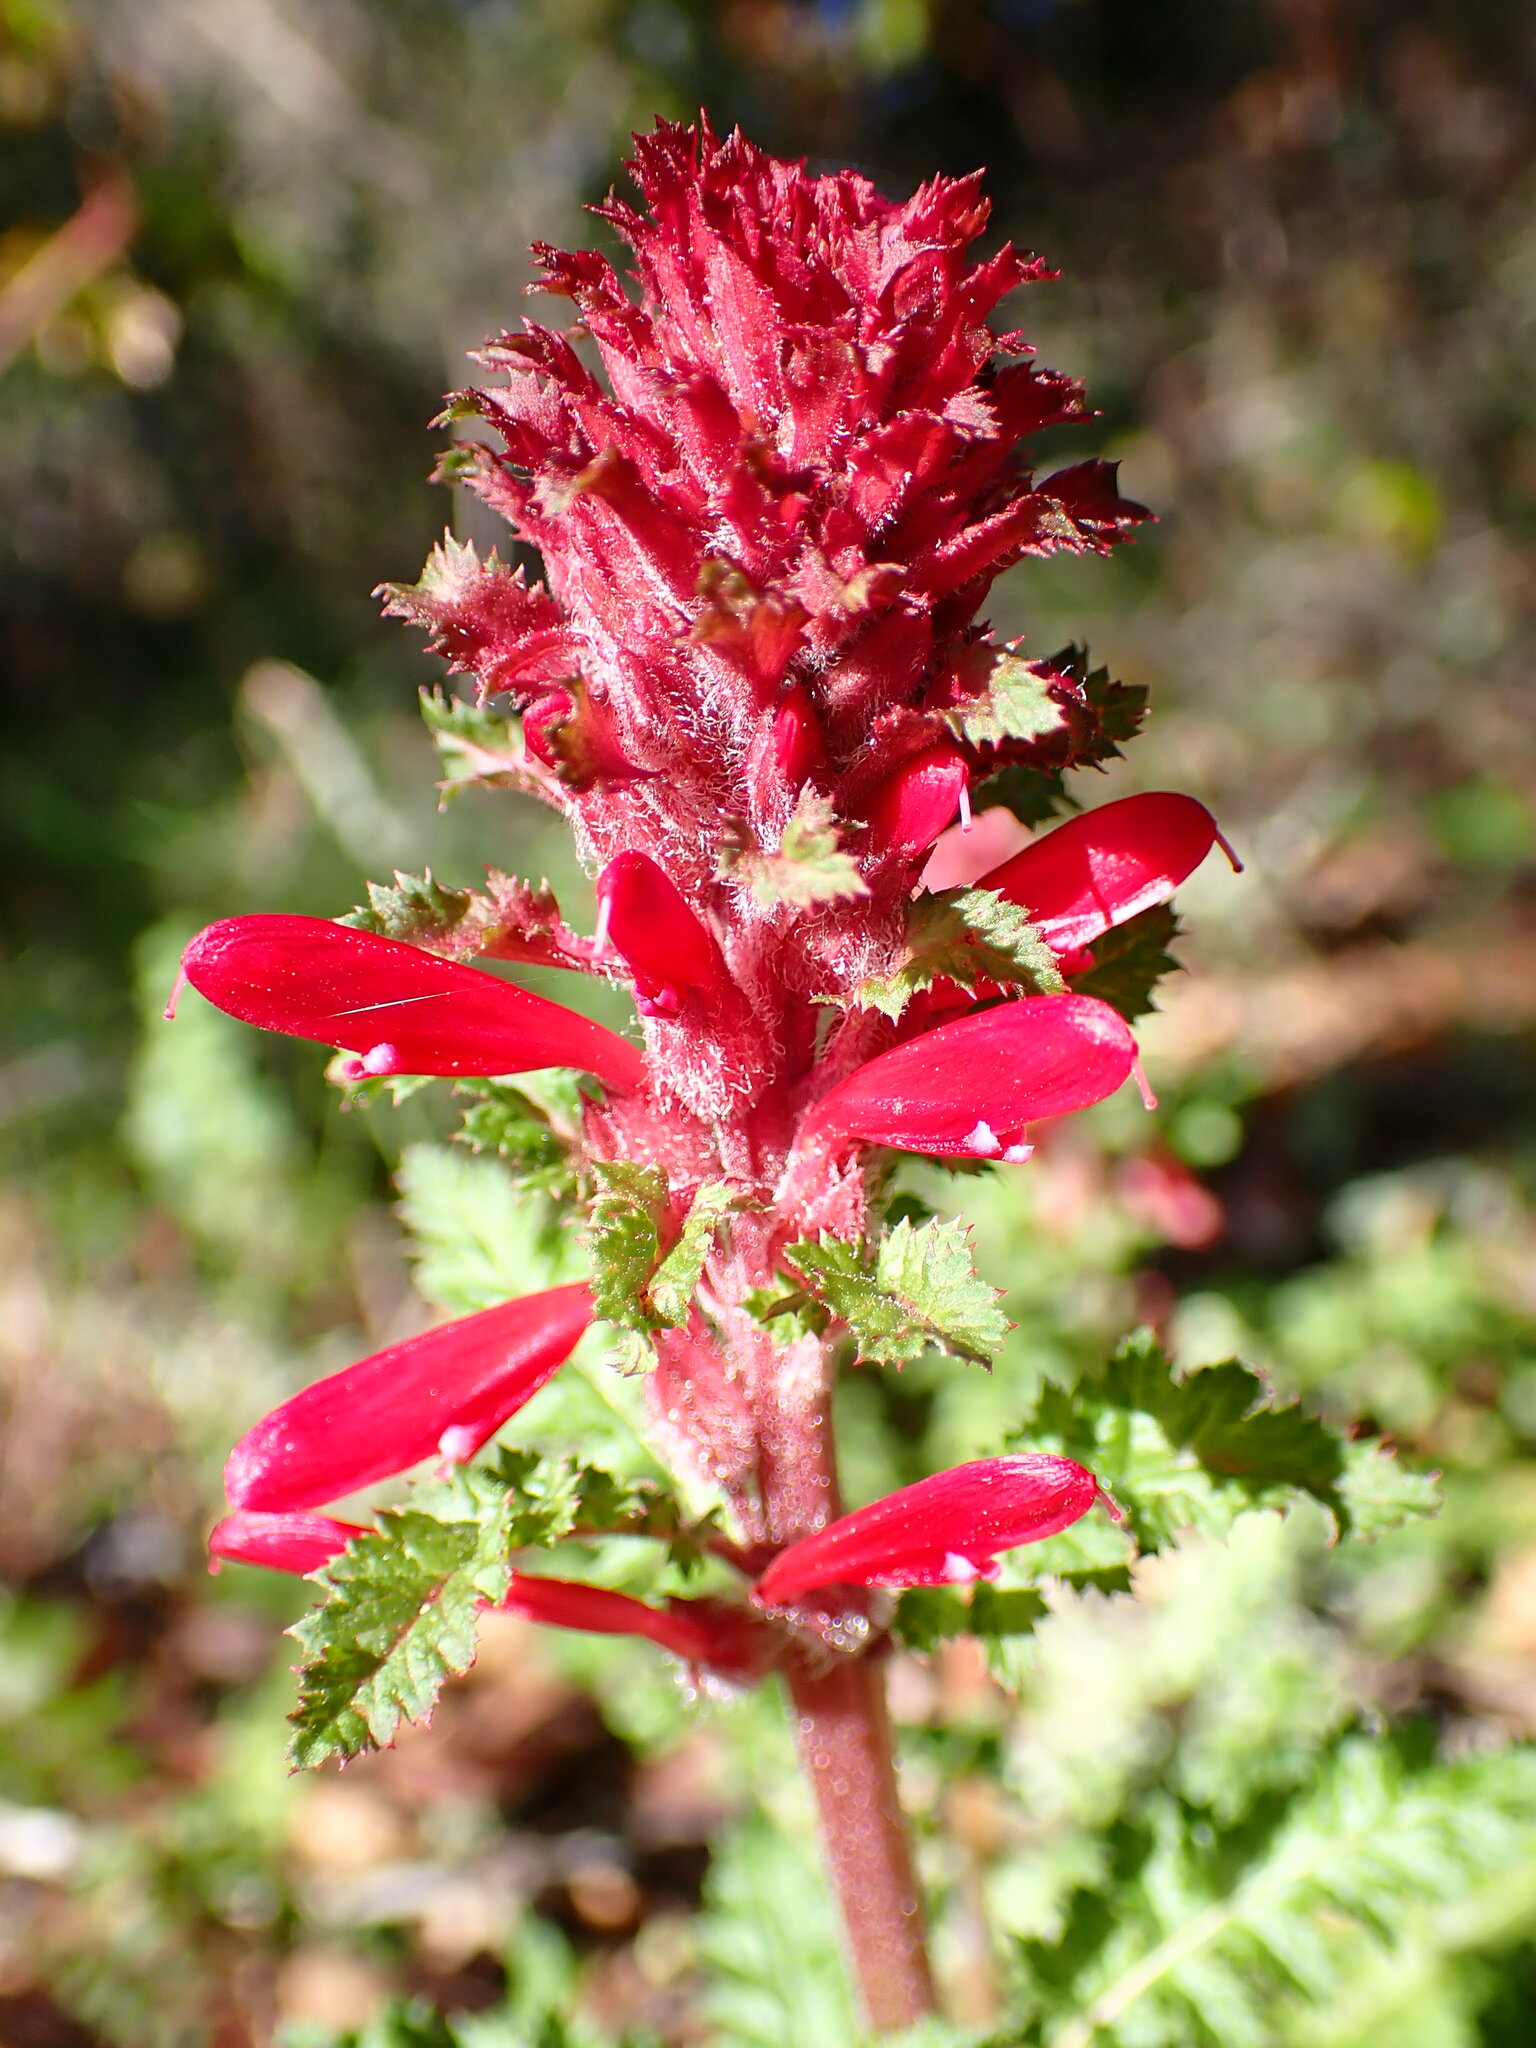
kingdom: Plantae
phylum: Tracheophyta
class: Magnoliopsida
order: Lamiales
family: Orobanchaceae
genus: Pedicularis
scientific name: Pedicularis densiflora
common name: Indian warrior
